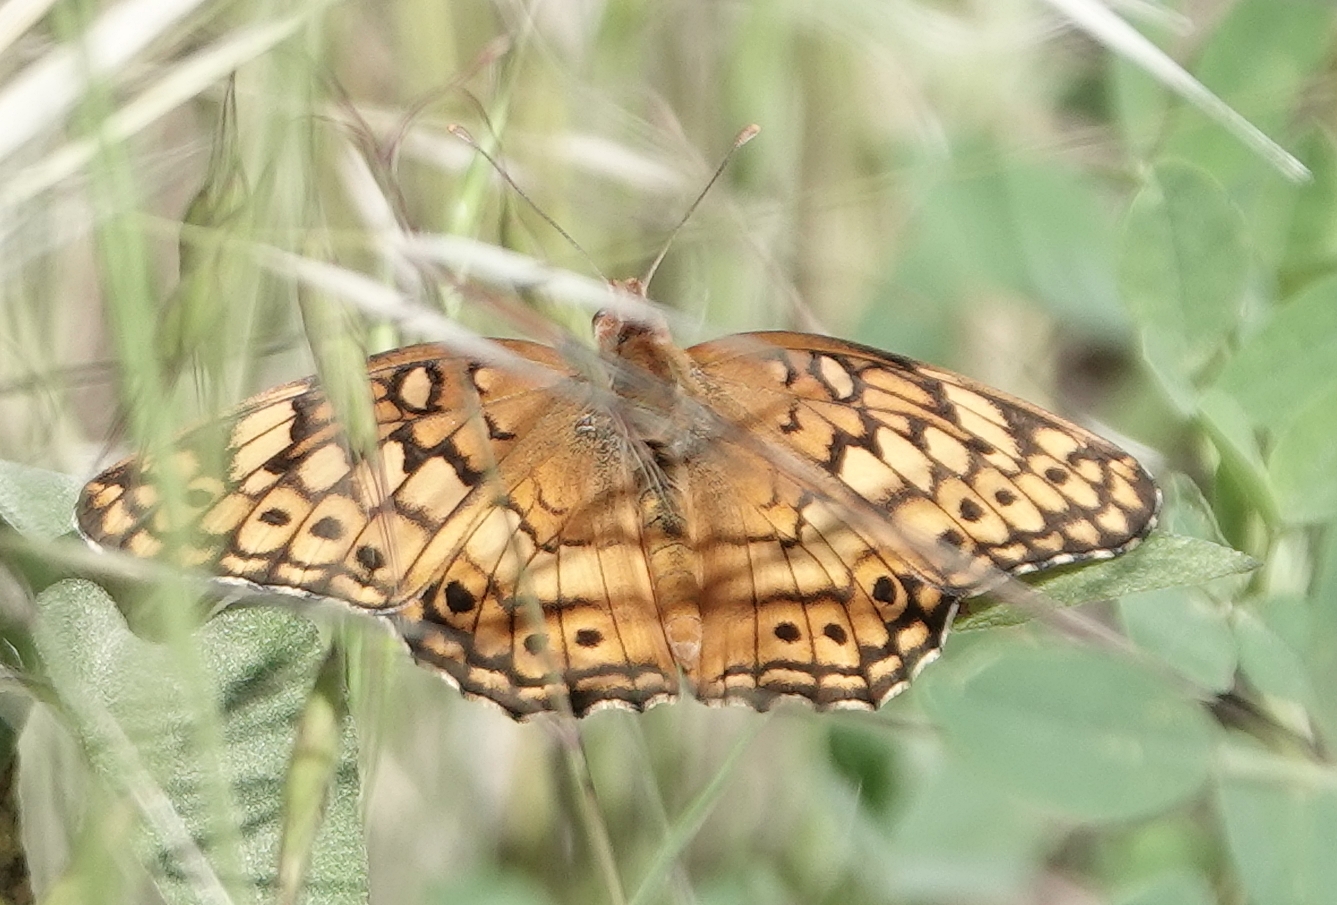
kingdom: Animalia
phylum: Arthropoda
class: Insecta
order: Lepidoptera
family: Nymphalidae
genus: Euptoieta
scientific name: Euptoieta claudia
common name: Variegated fritillary
